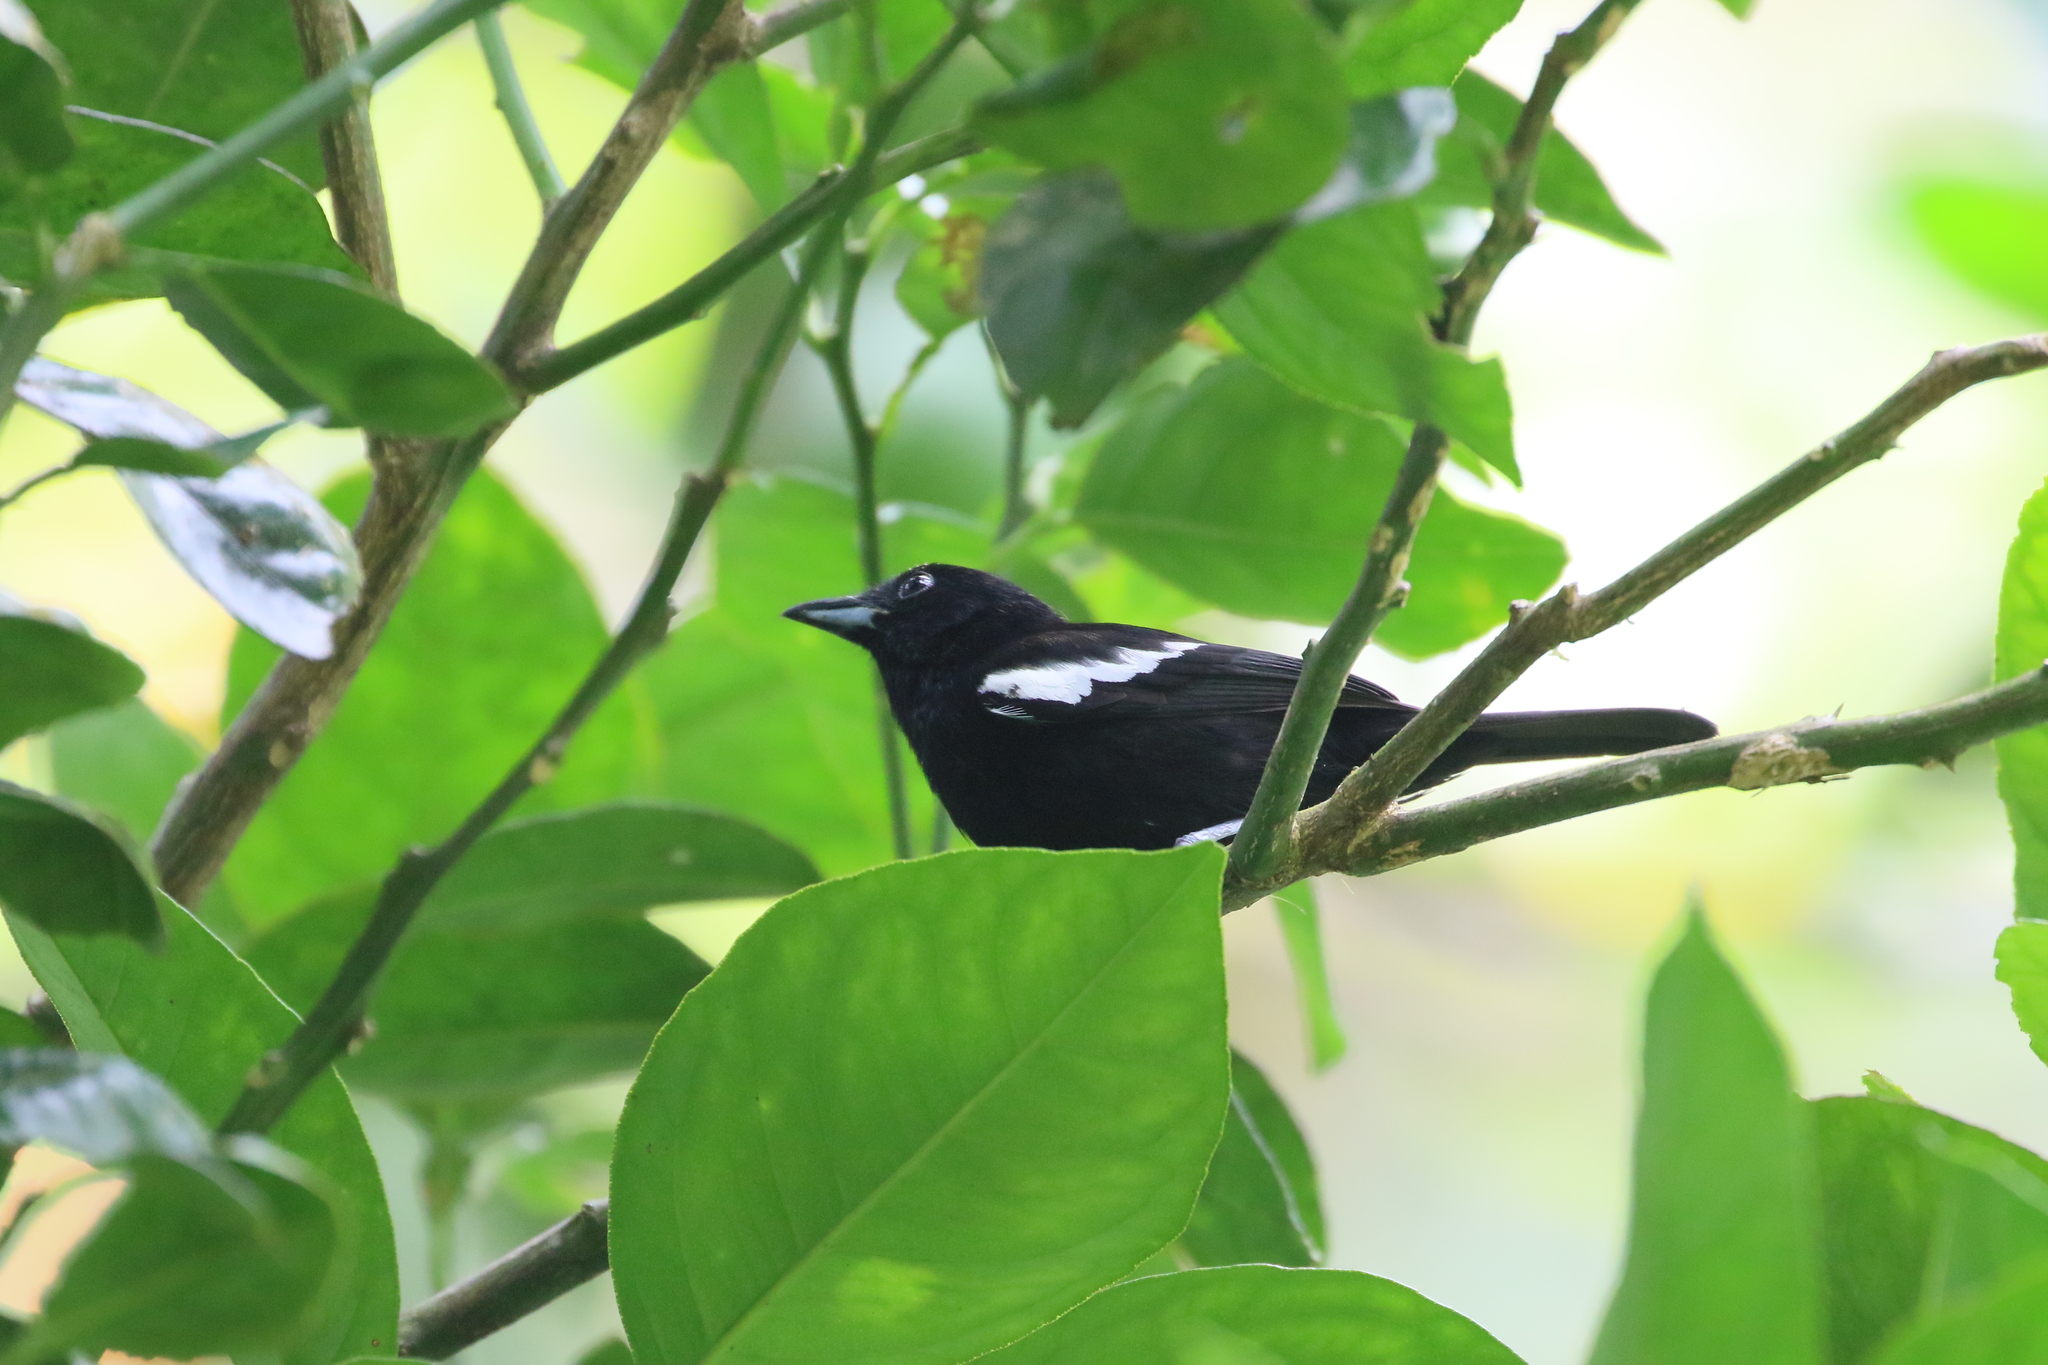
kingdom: Animalia
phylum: Chordata
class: Aves
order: Passeriformes
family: Thraupidae
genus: Loriotus
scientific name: Loriotus luctuosus
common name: White-shouldered tanager
